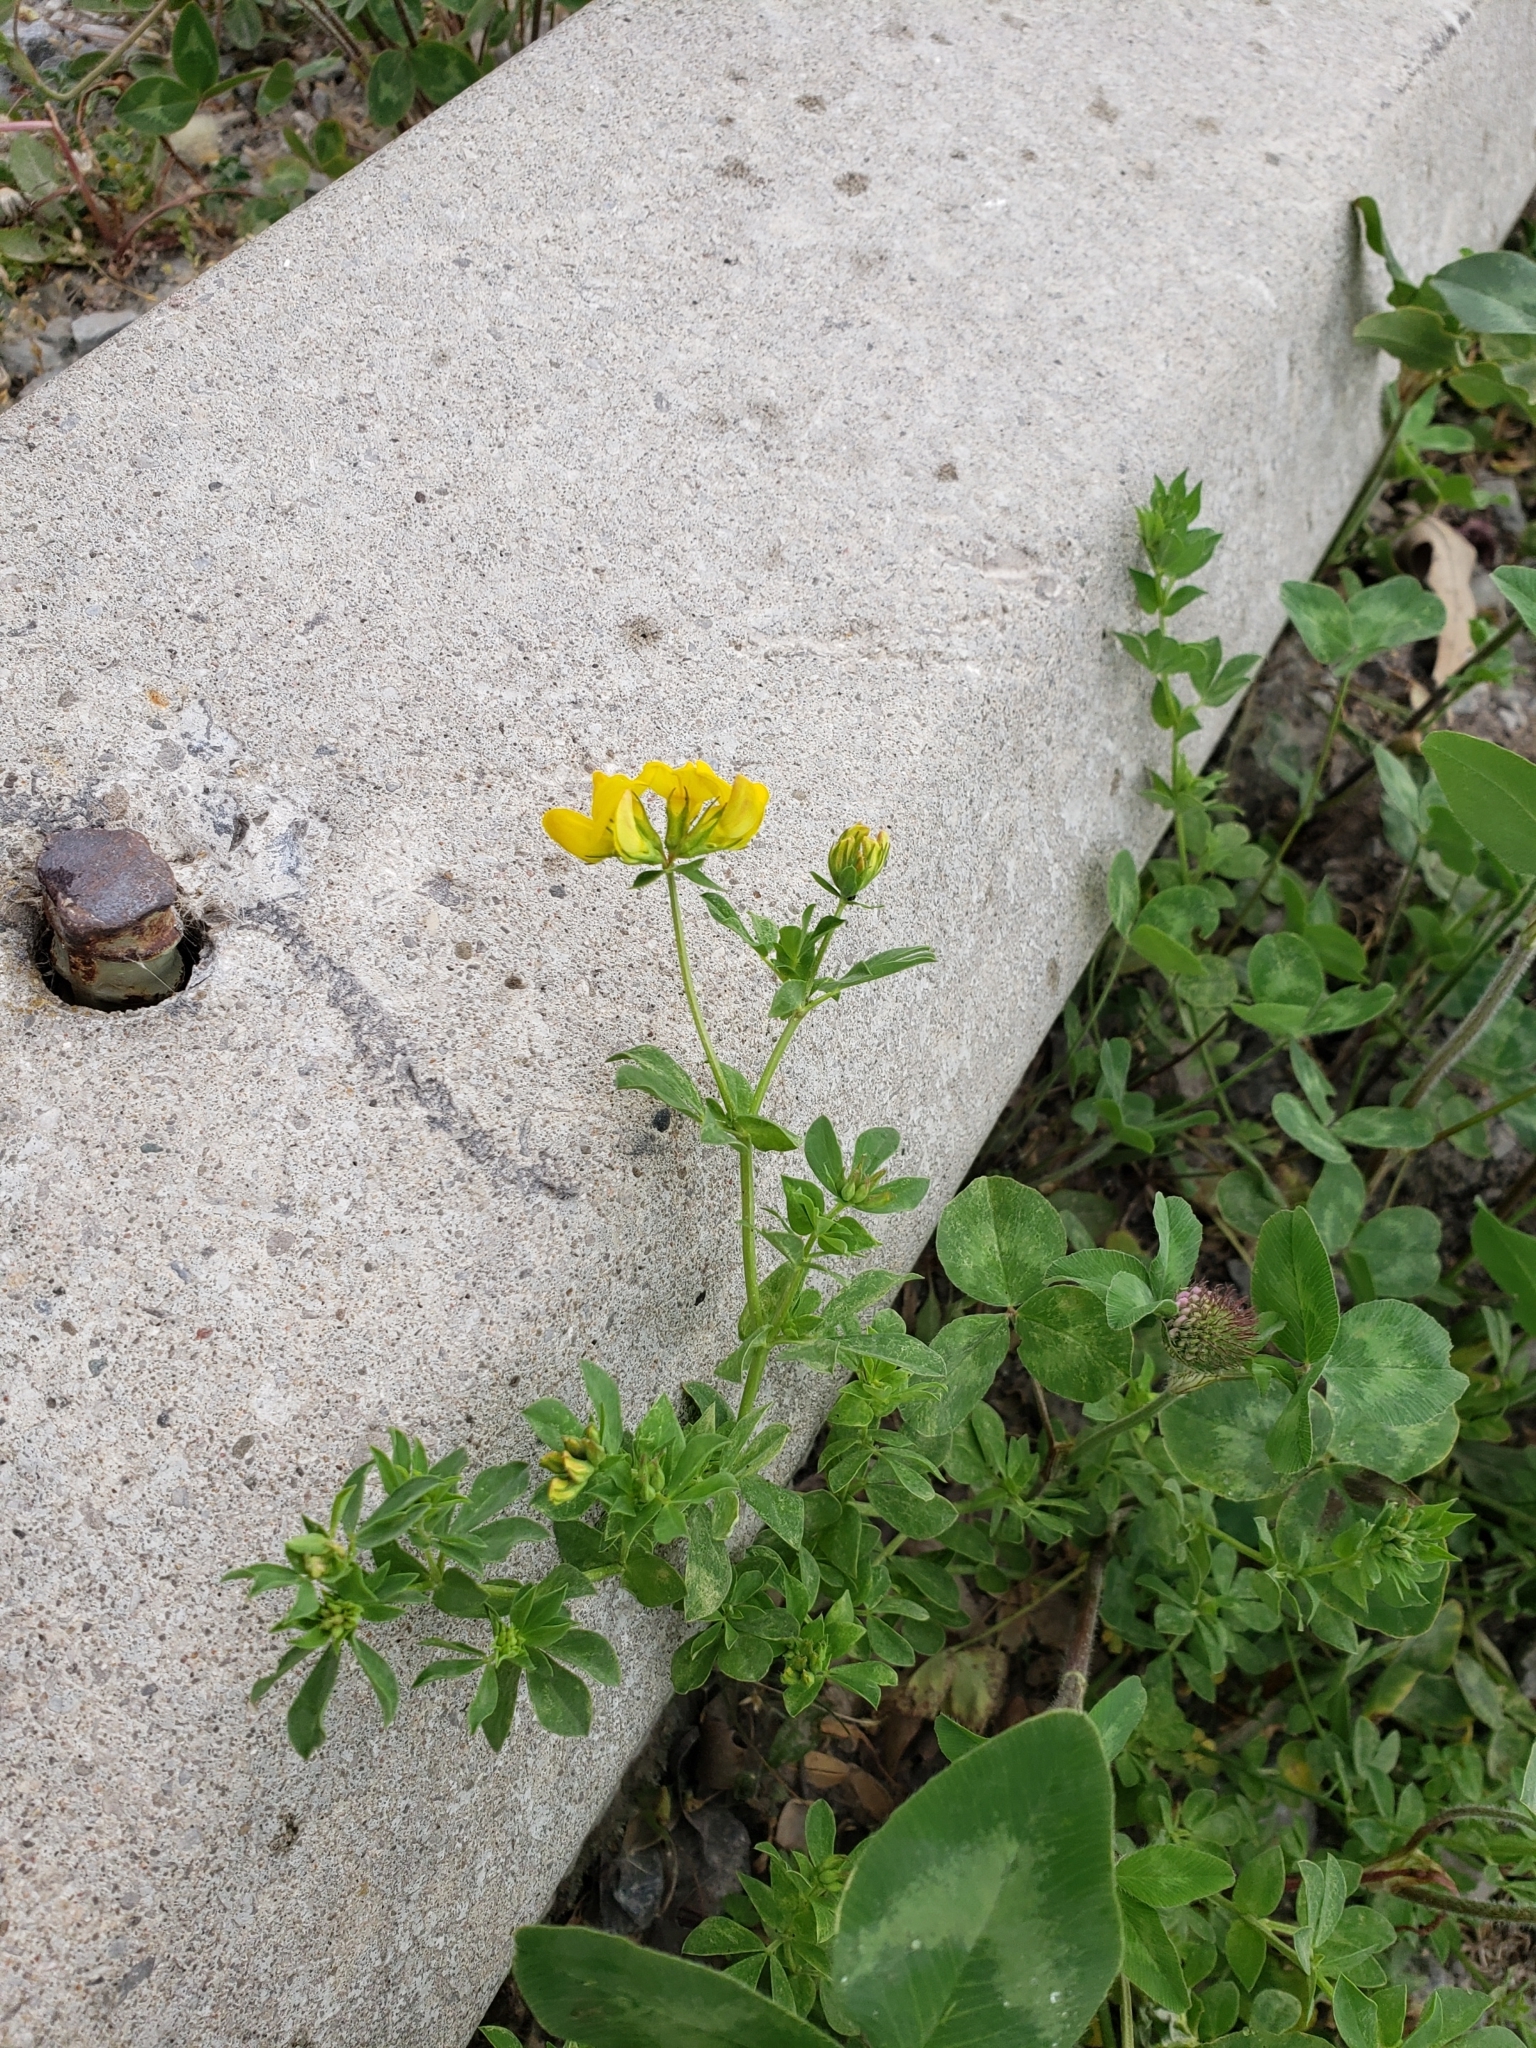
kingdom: Plantae
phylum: Tracheophyta
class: Magnoliopsida
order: Fabales
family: Fabaceae
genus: Lotus
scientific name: Lotus corniculatus
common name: Common bird's-foot-trefoil
